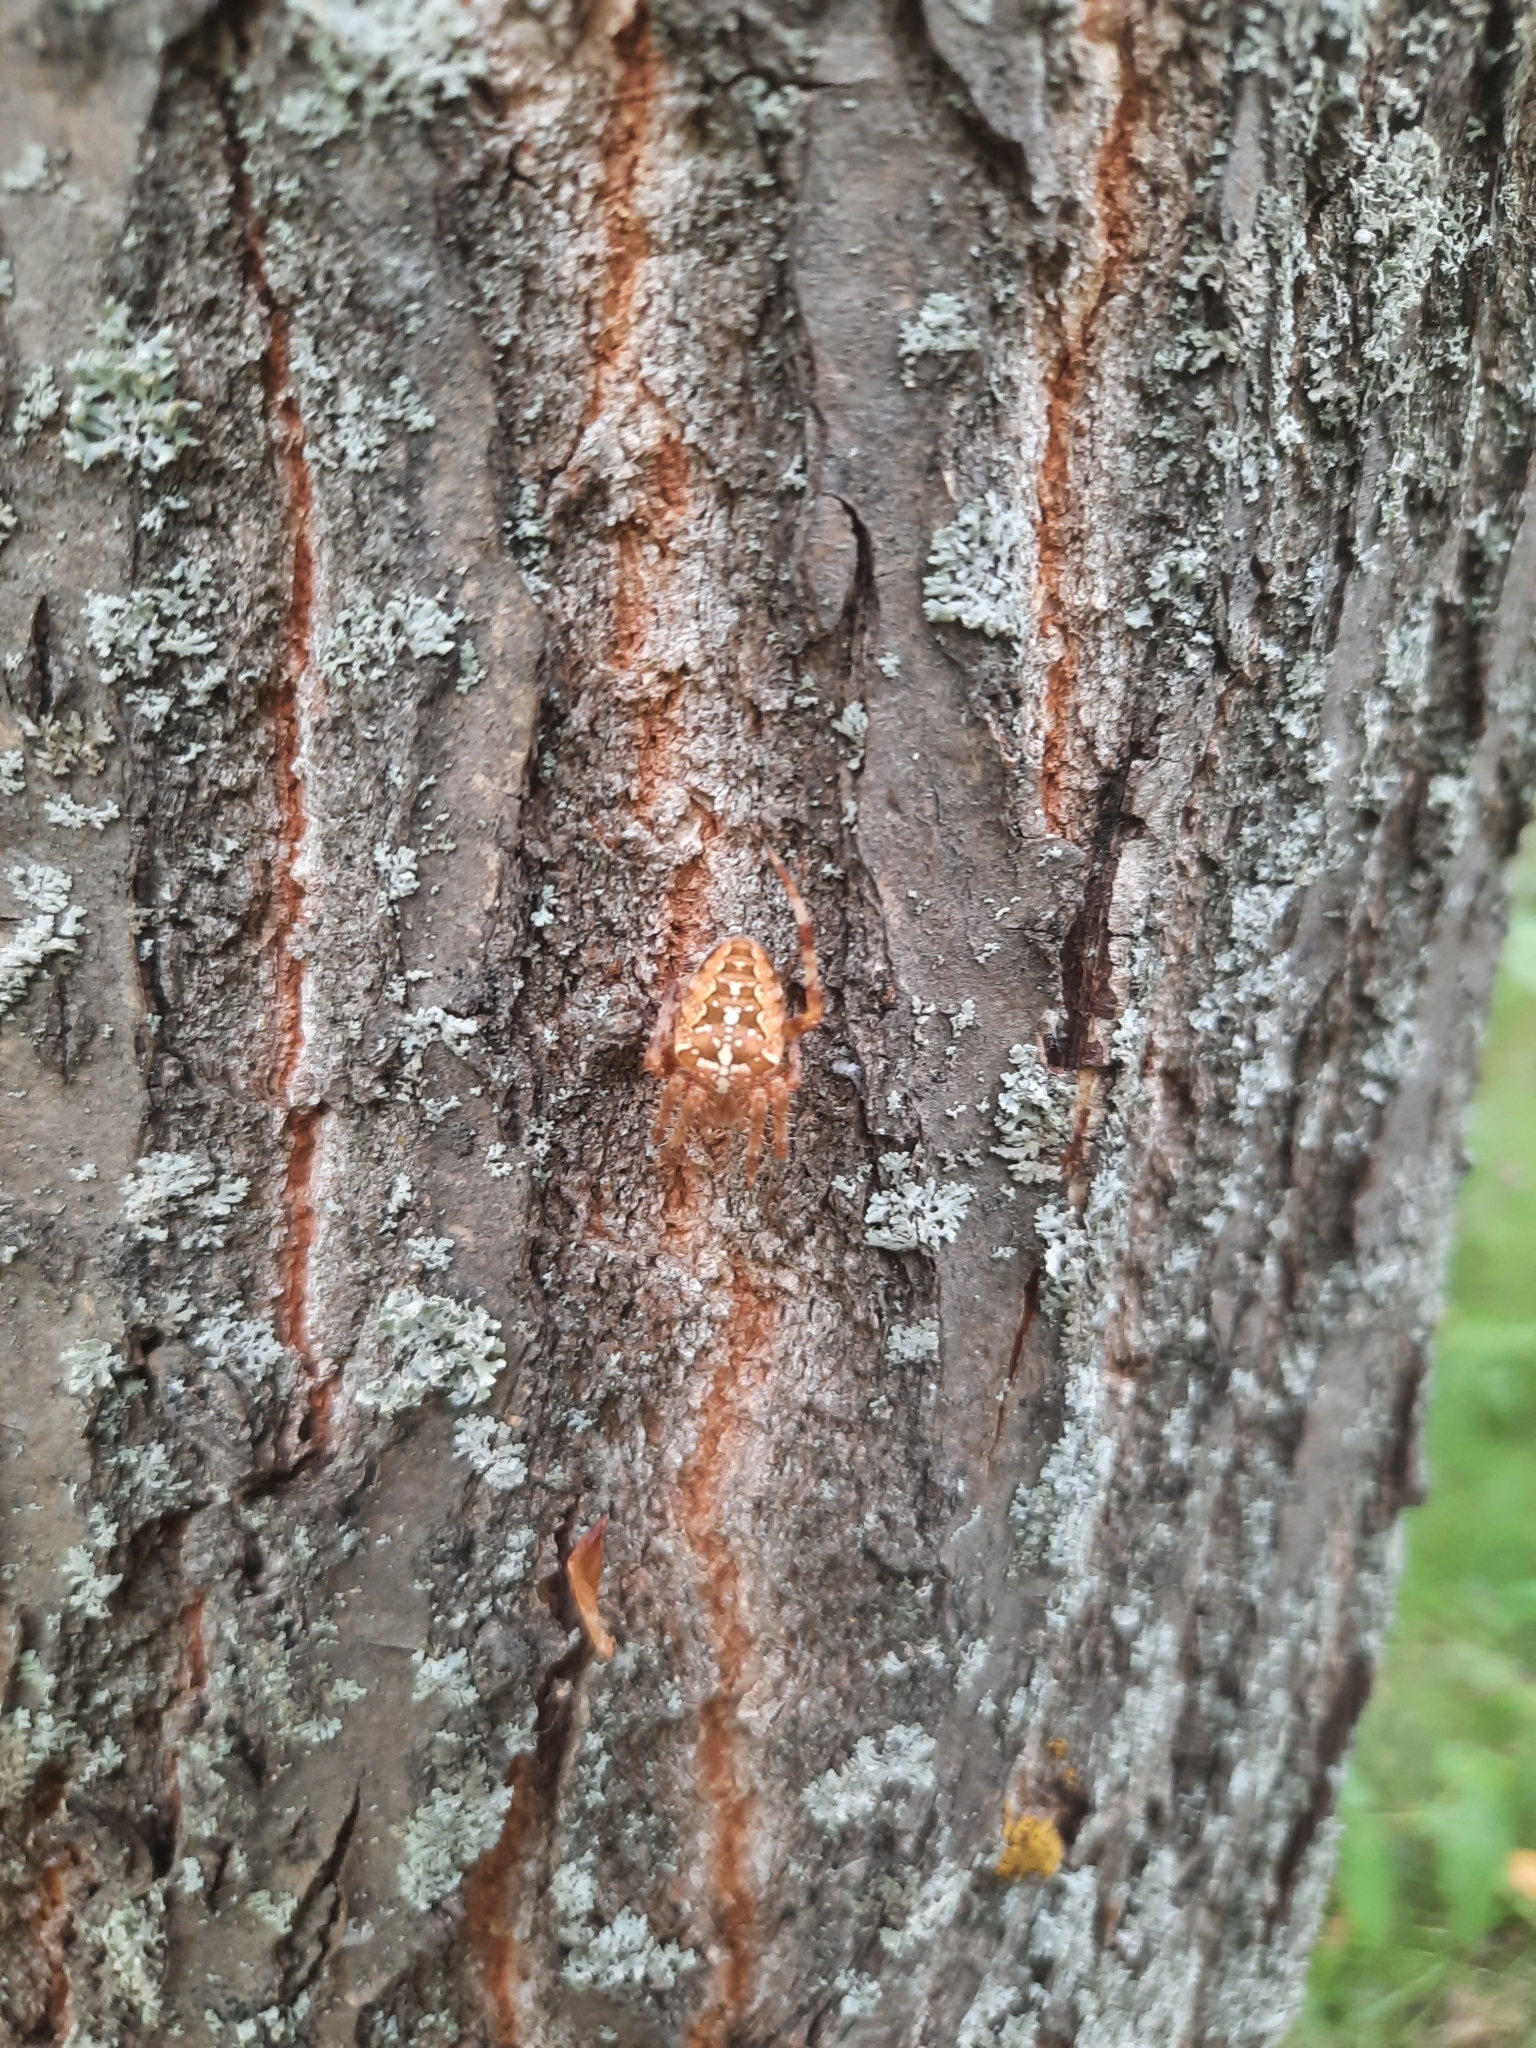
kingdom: Animalia
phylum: Arthropoda
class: Arachnida
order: Araneae
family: Araneidae
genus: Araneus
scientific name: Araneus diadematus
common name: Cross orbweaver
